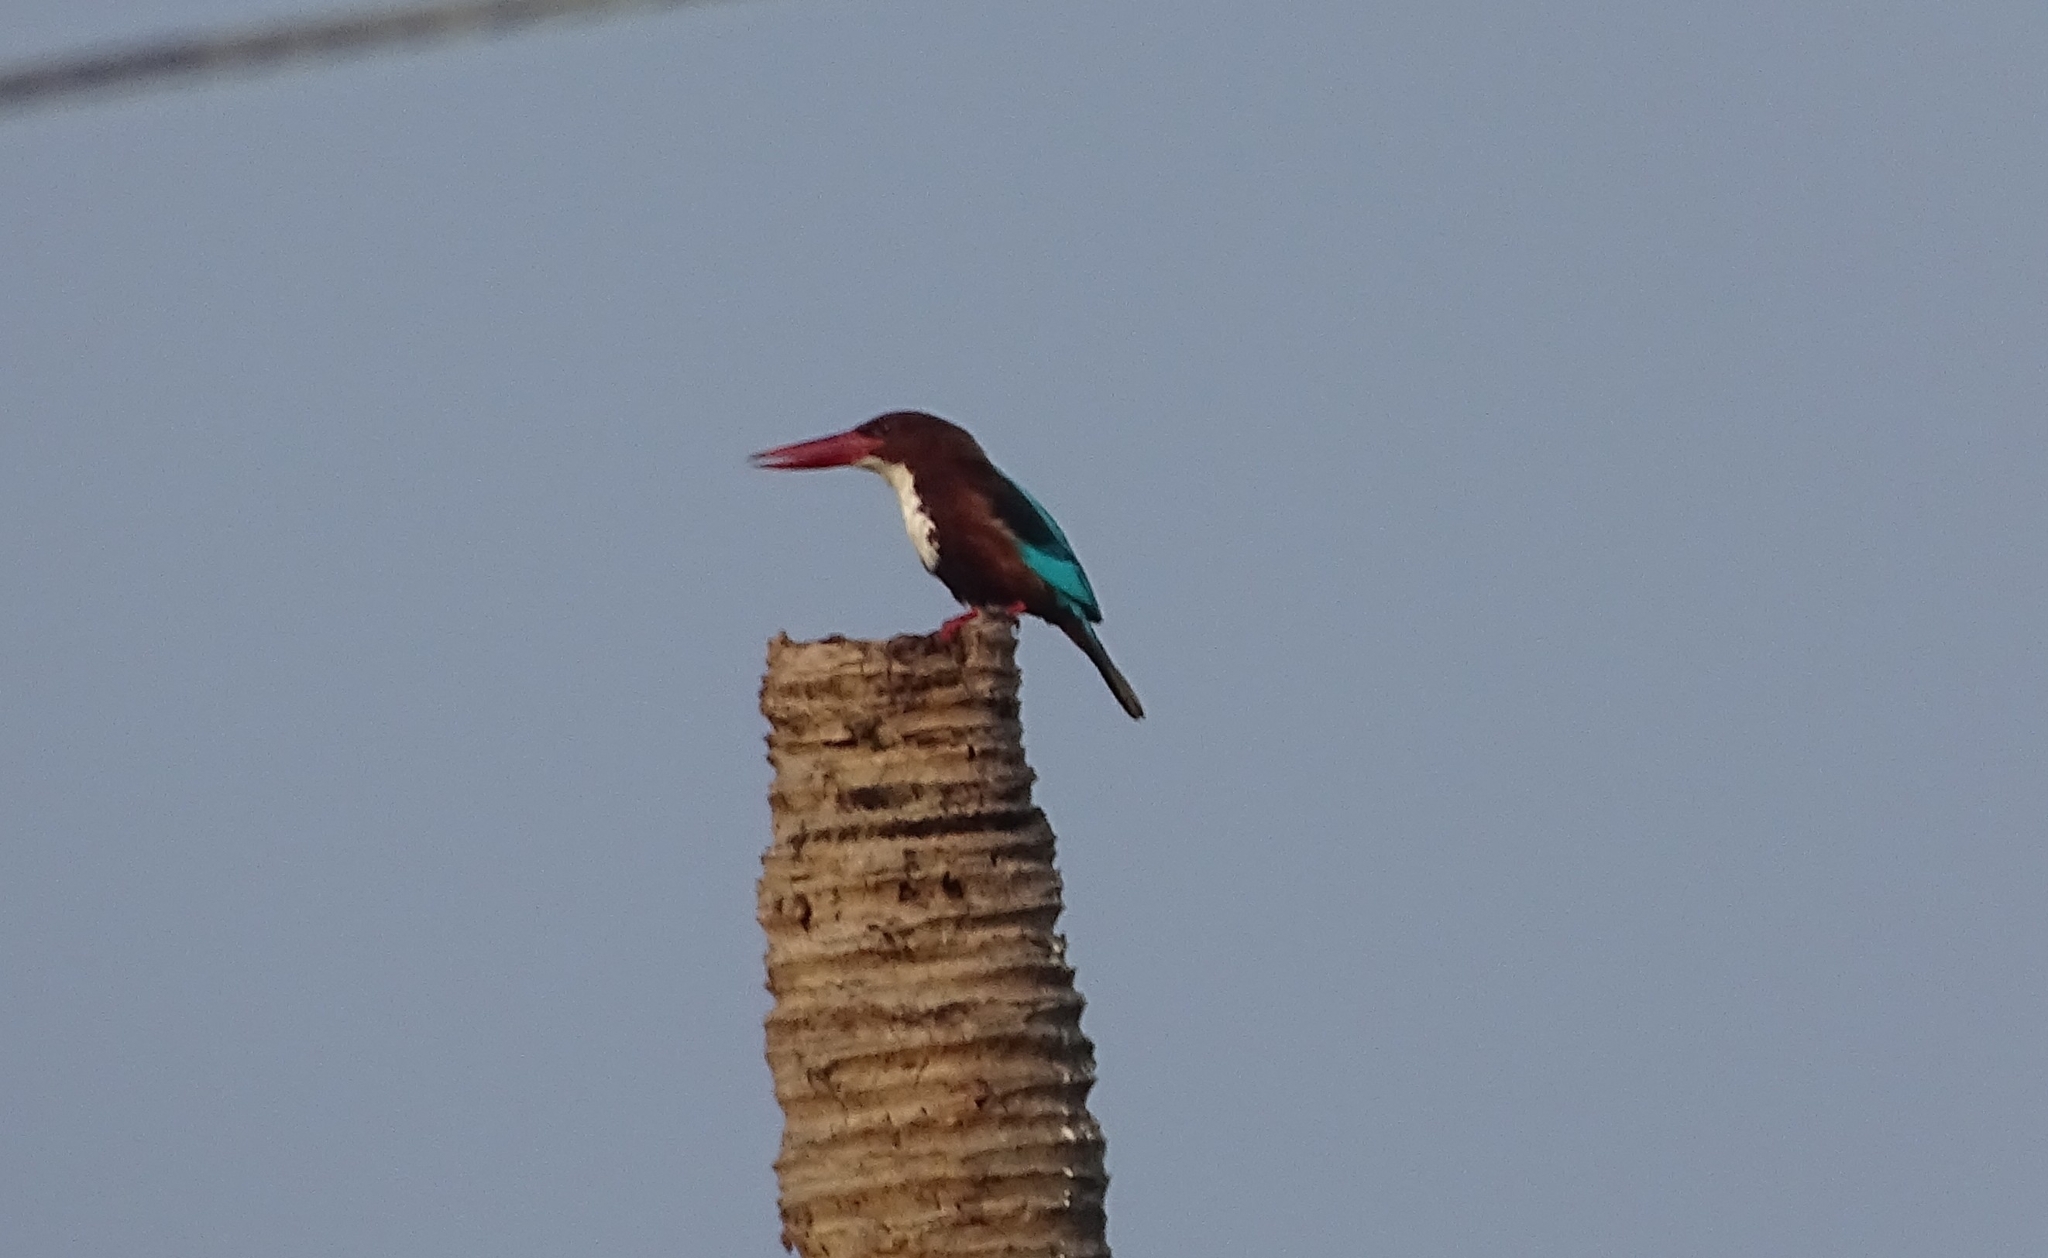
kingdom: Animalia
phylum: Chordata
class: Aves
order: Coraciiformes
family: Alcedinidae
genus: Halcyon
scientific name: Halcyon smyrnensis
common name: White-throated kingfisher
